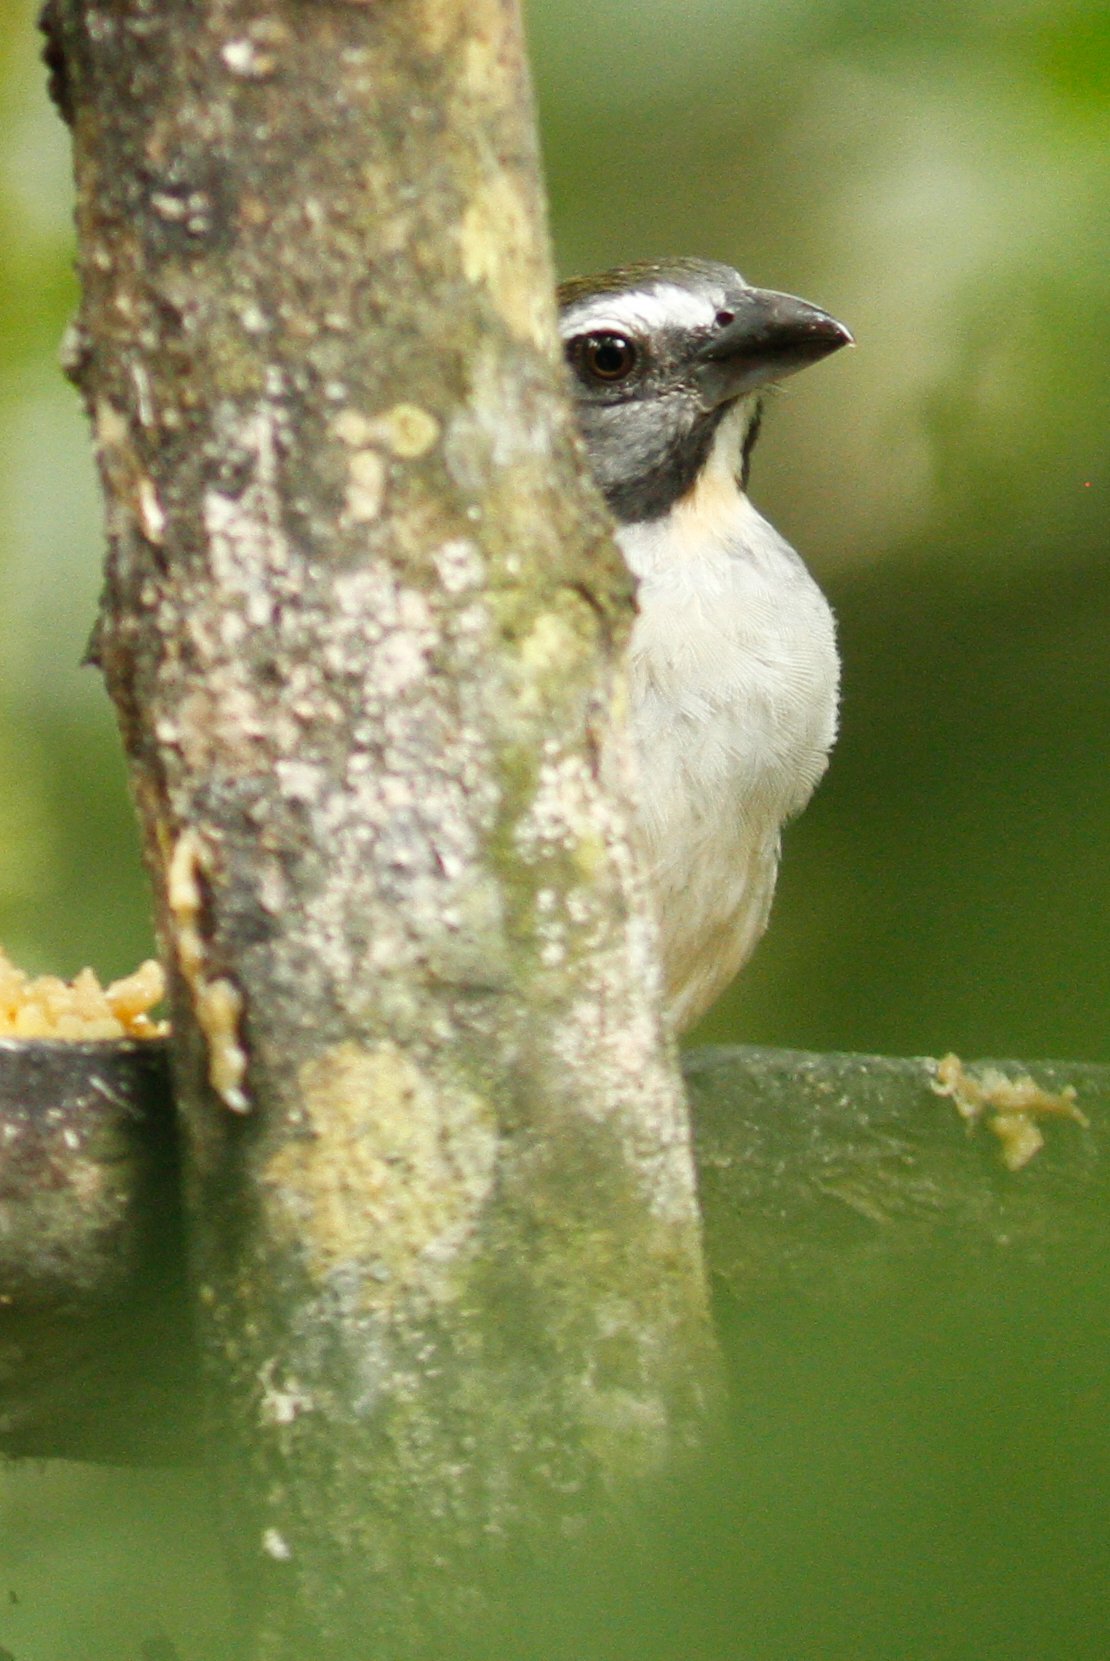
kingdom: Animalia
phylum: Chordata
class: Aves
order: Passeriformes
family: Thraupidae
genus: Saltator
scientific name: Saltator maximus
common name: Buff-throated saltator
